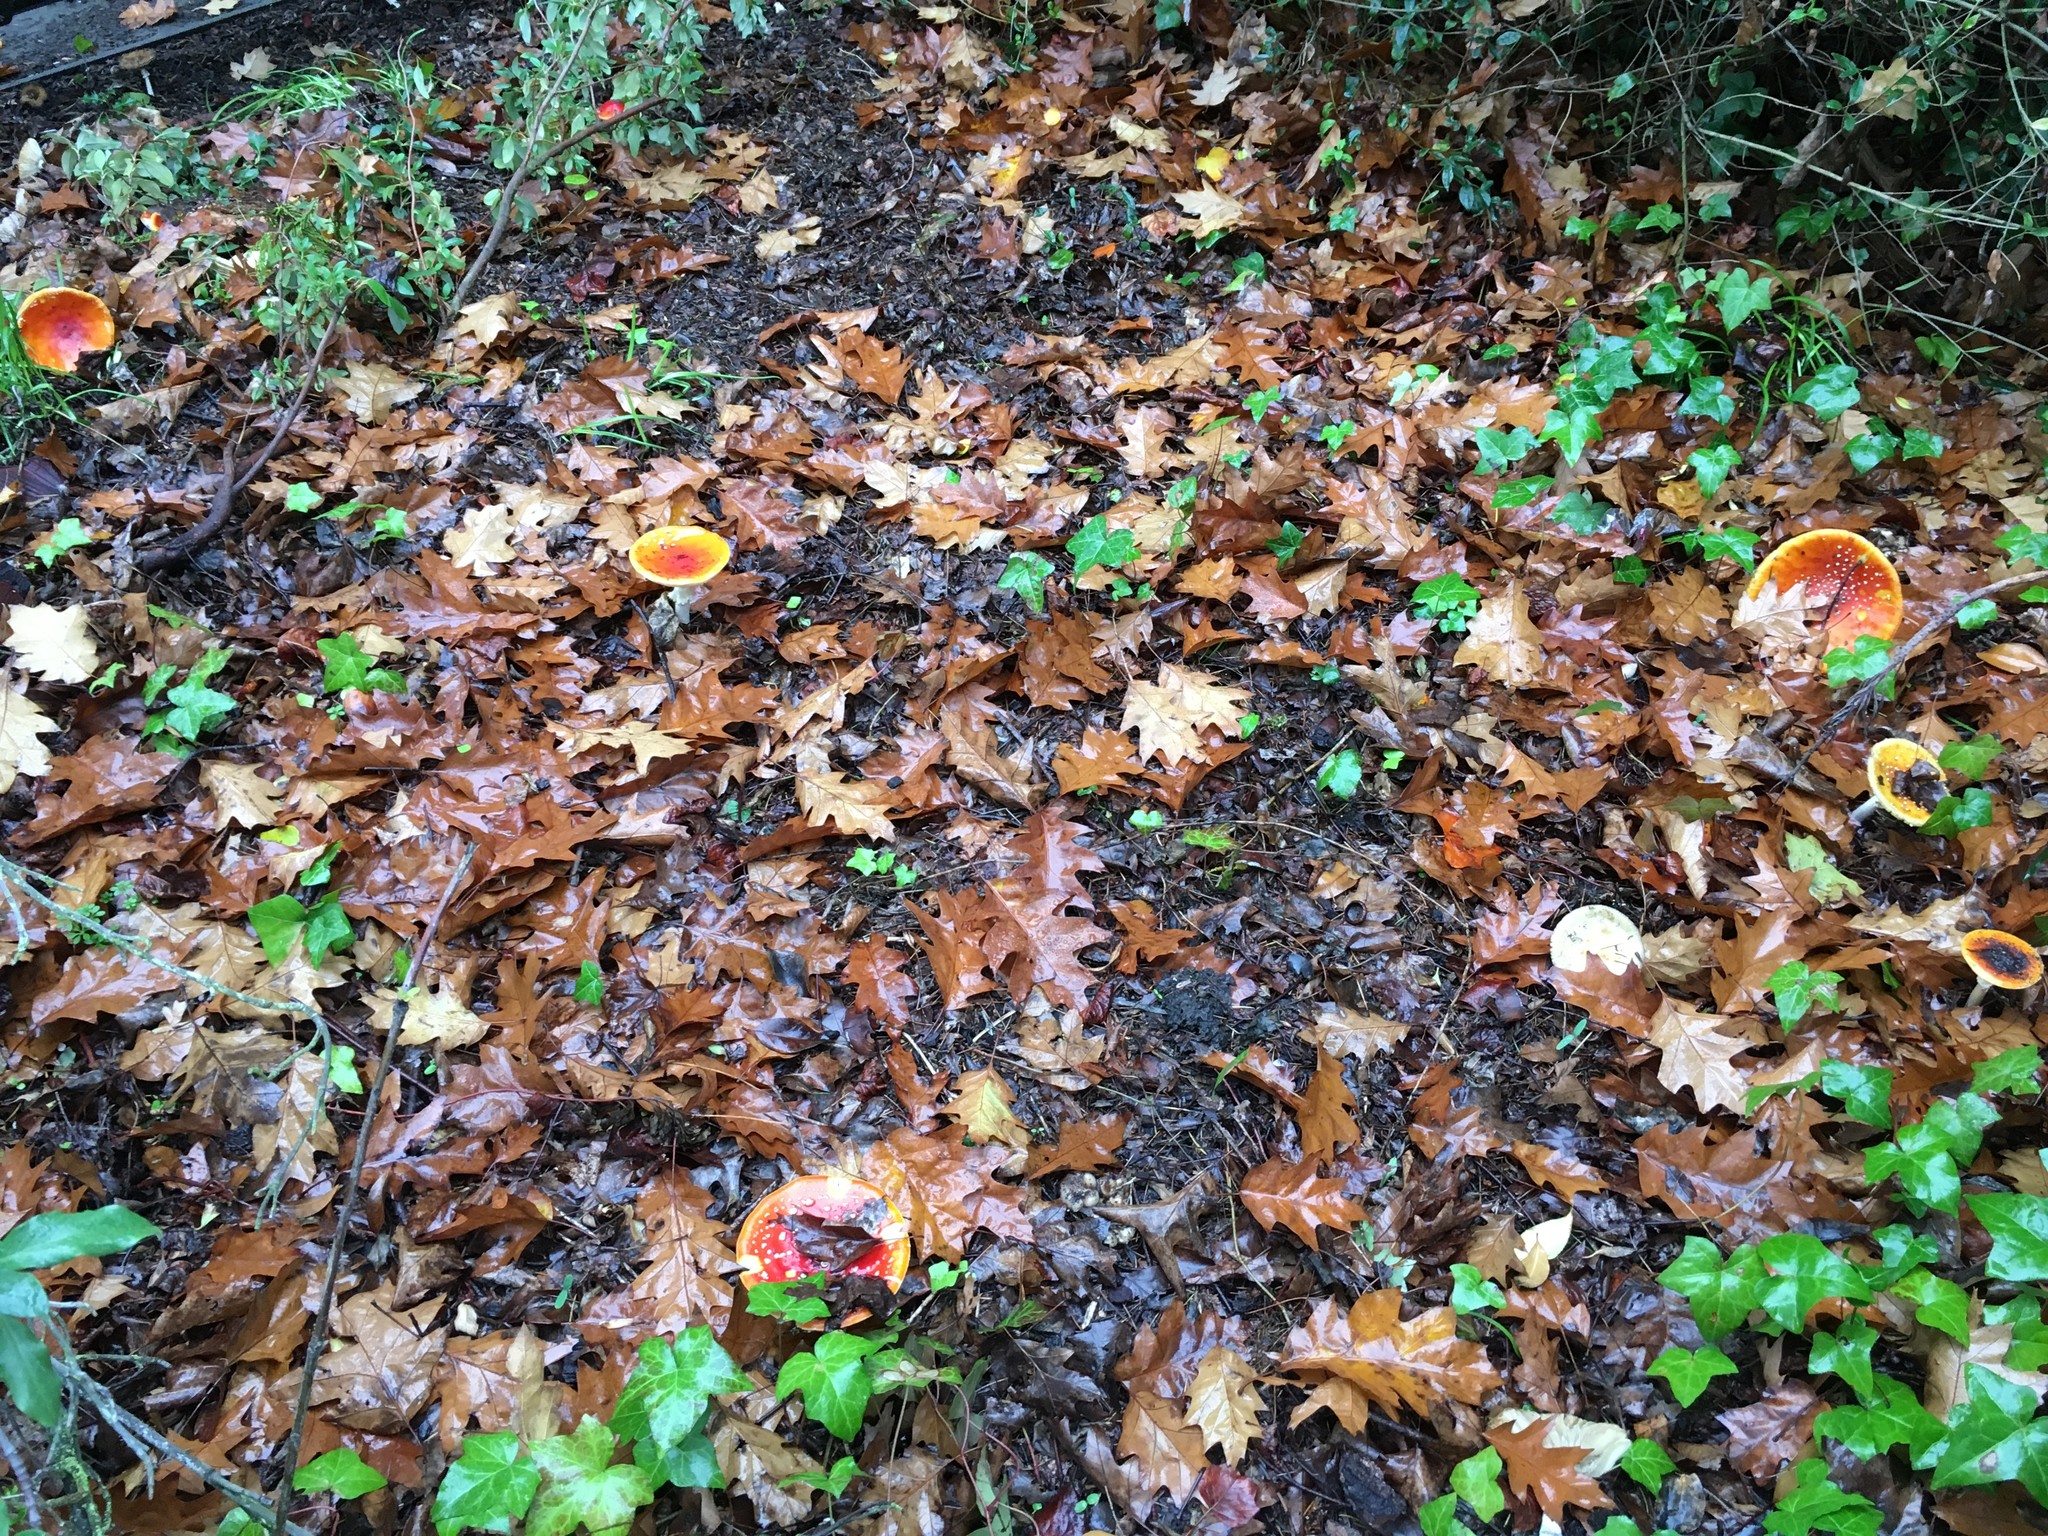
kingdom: Fungi
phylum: Basidiomycota
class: Agaricomycetes
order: Agaricales
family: Amanitaceae
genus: Amanita
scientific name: Amanita muscaria
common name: Fly agaric
